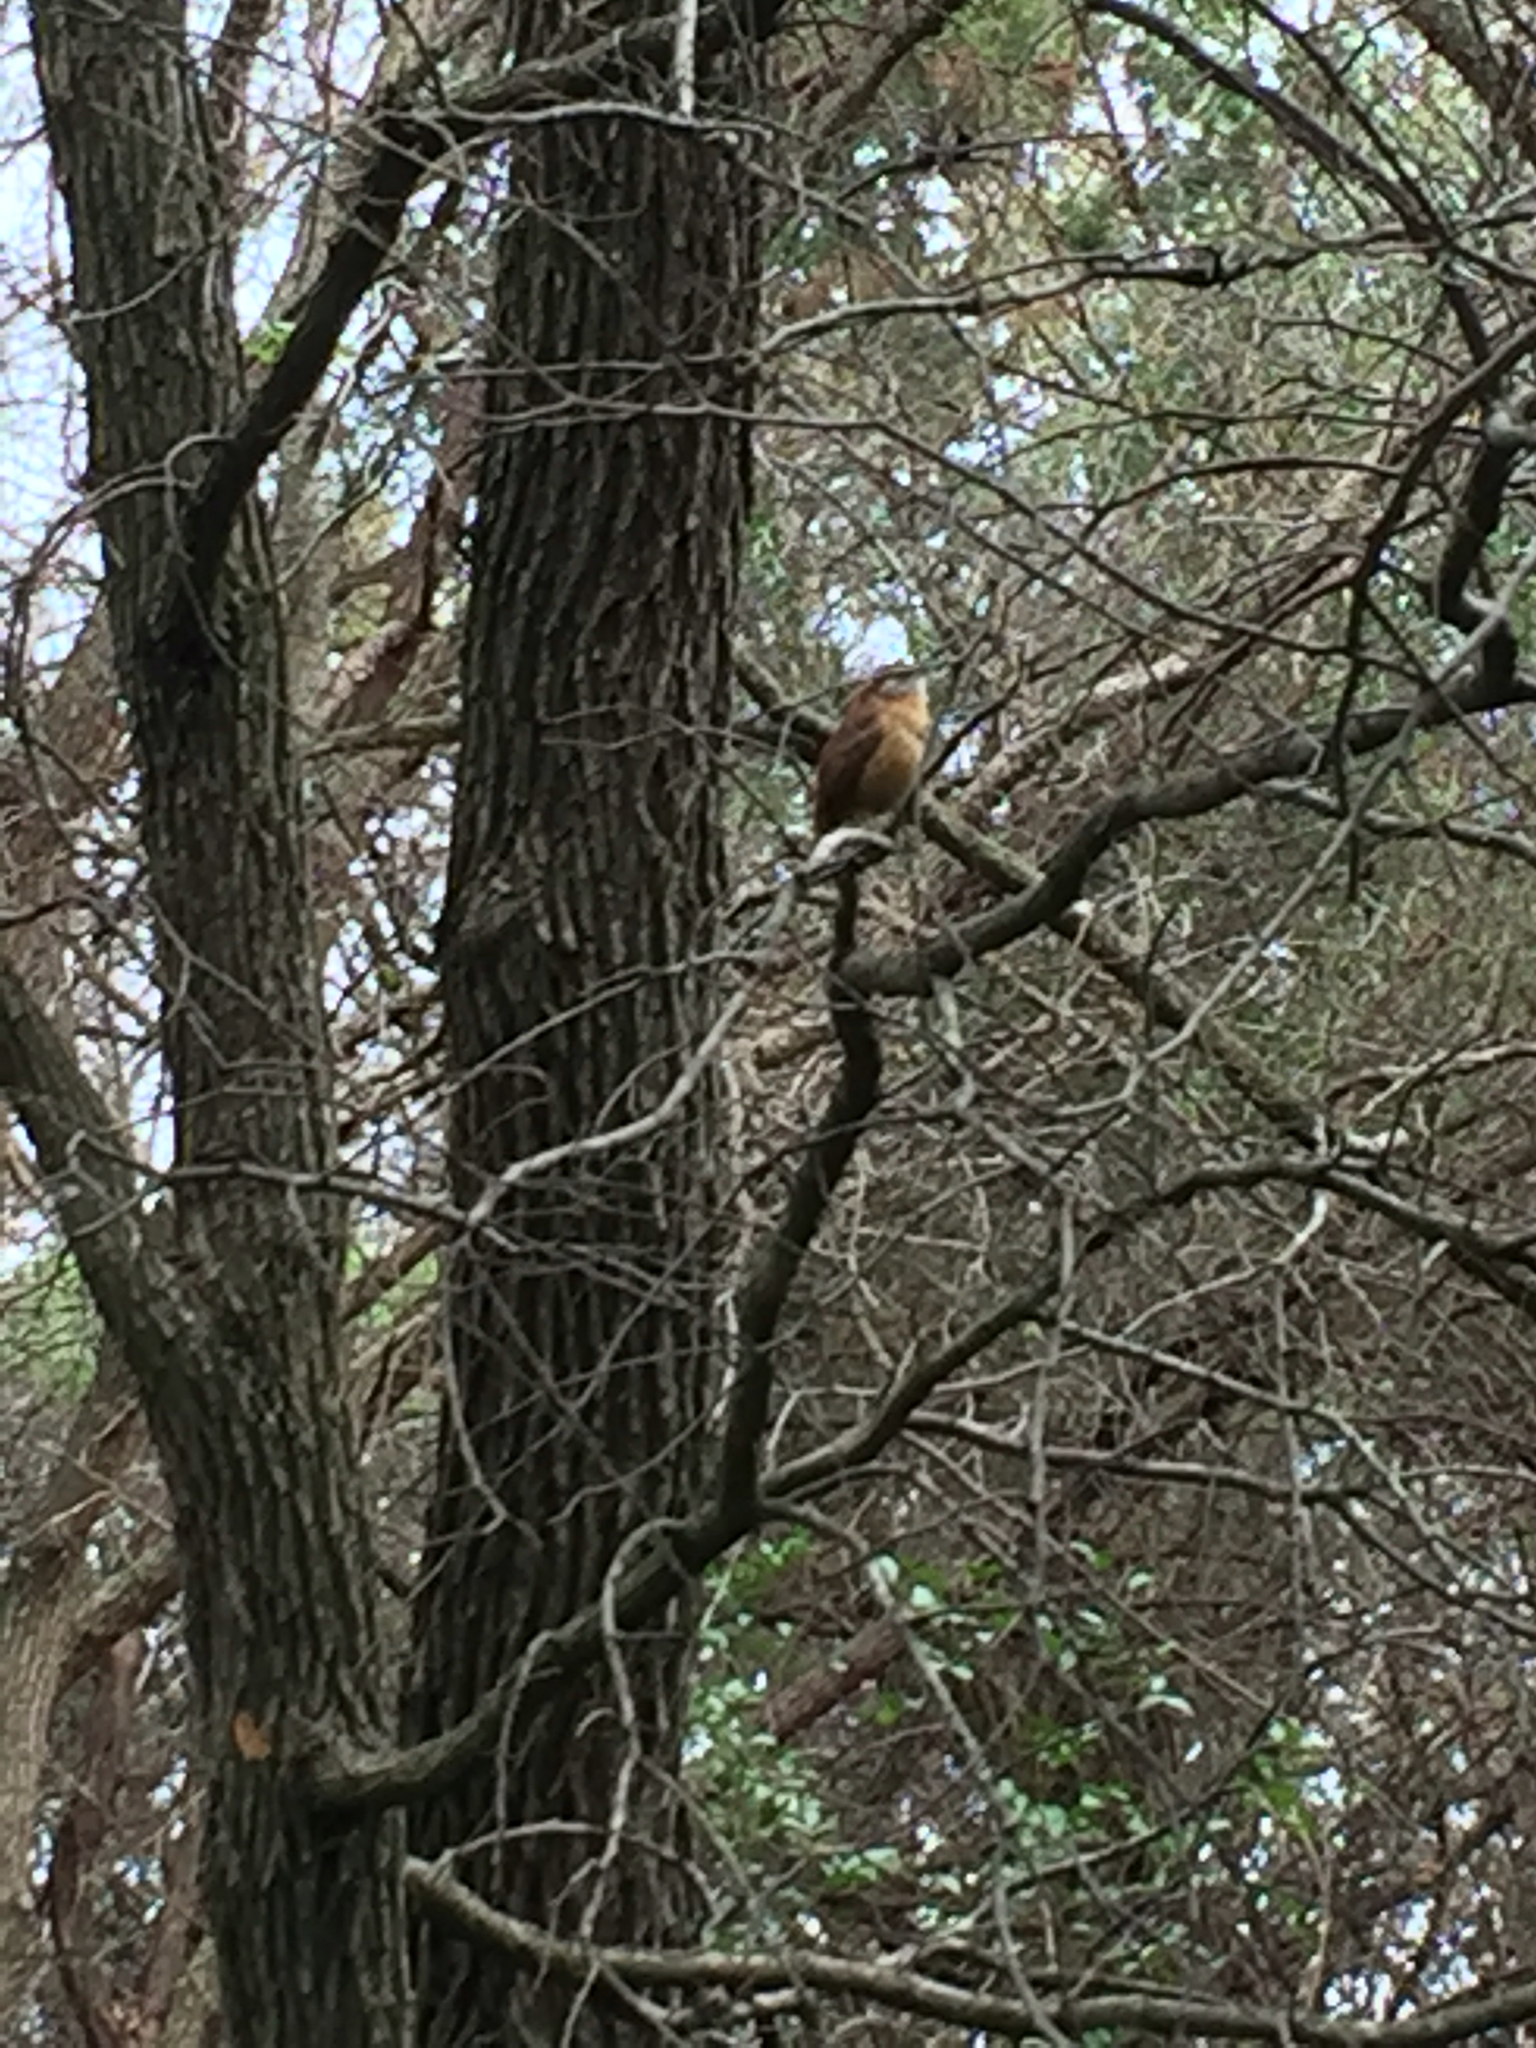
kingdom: Animalia
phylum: Chordata
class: Aves
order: Passeriformes
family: Troglodytidae
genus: Thryothorus
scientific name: Thryothorus ludovicianus
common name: Carolina wren
